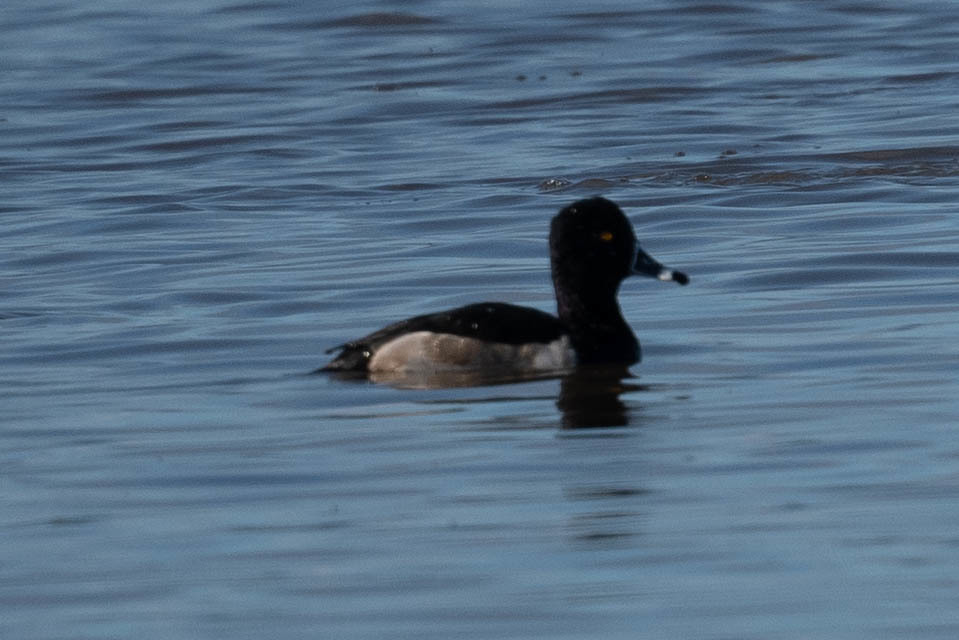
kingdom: Animalia
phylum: Chordata
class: Aves
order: Anseriformes
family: Anatidae
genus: Aythya
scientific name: Aythya collaris
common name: Ring-necked duck
